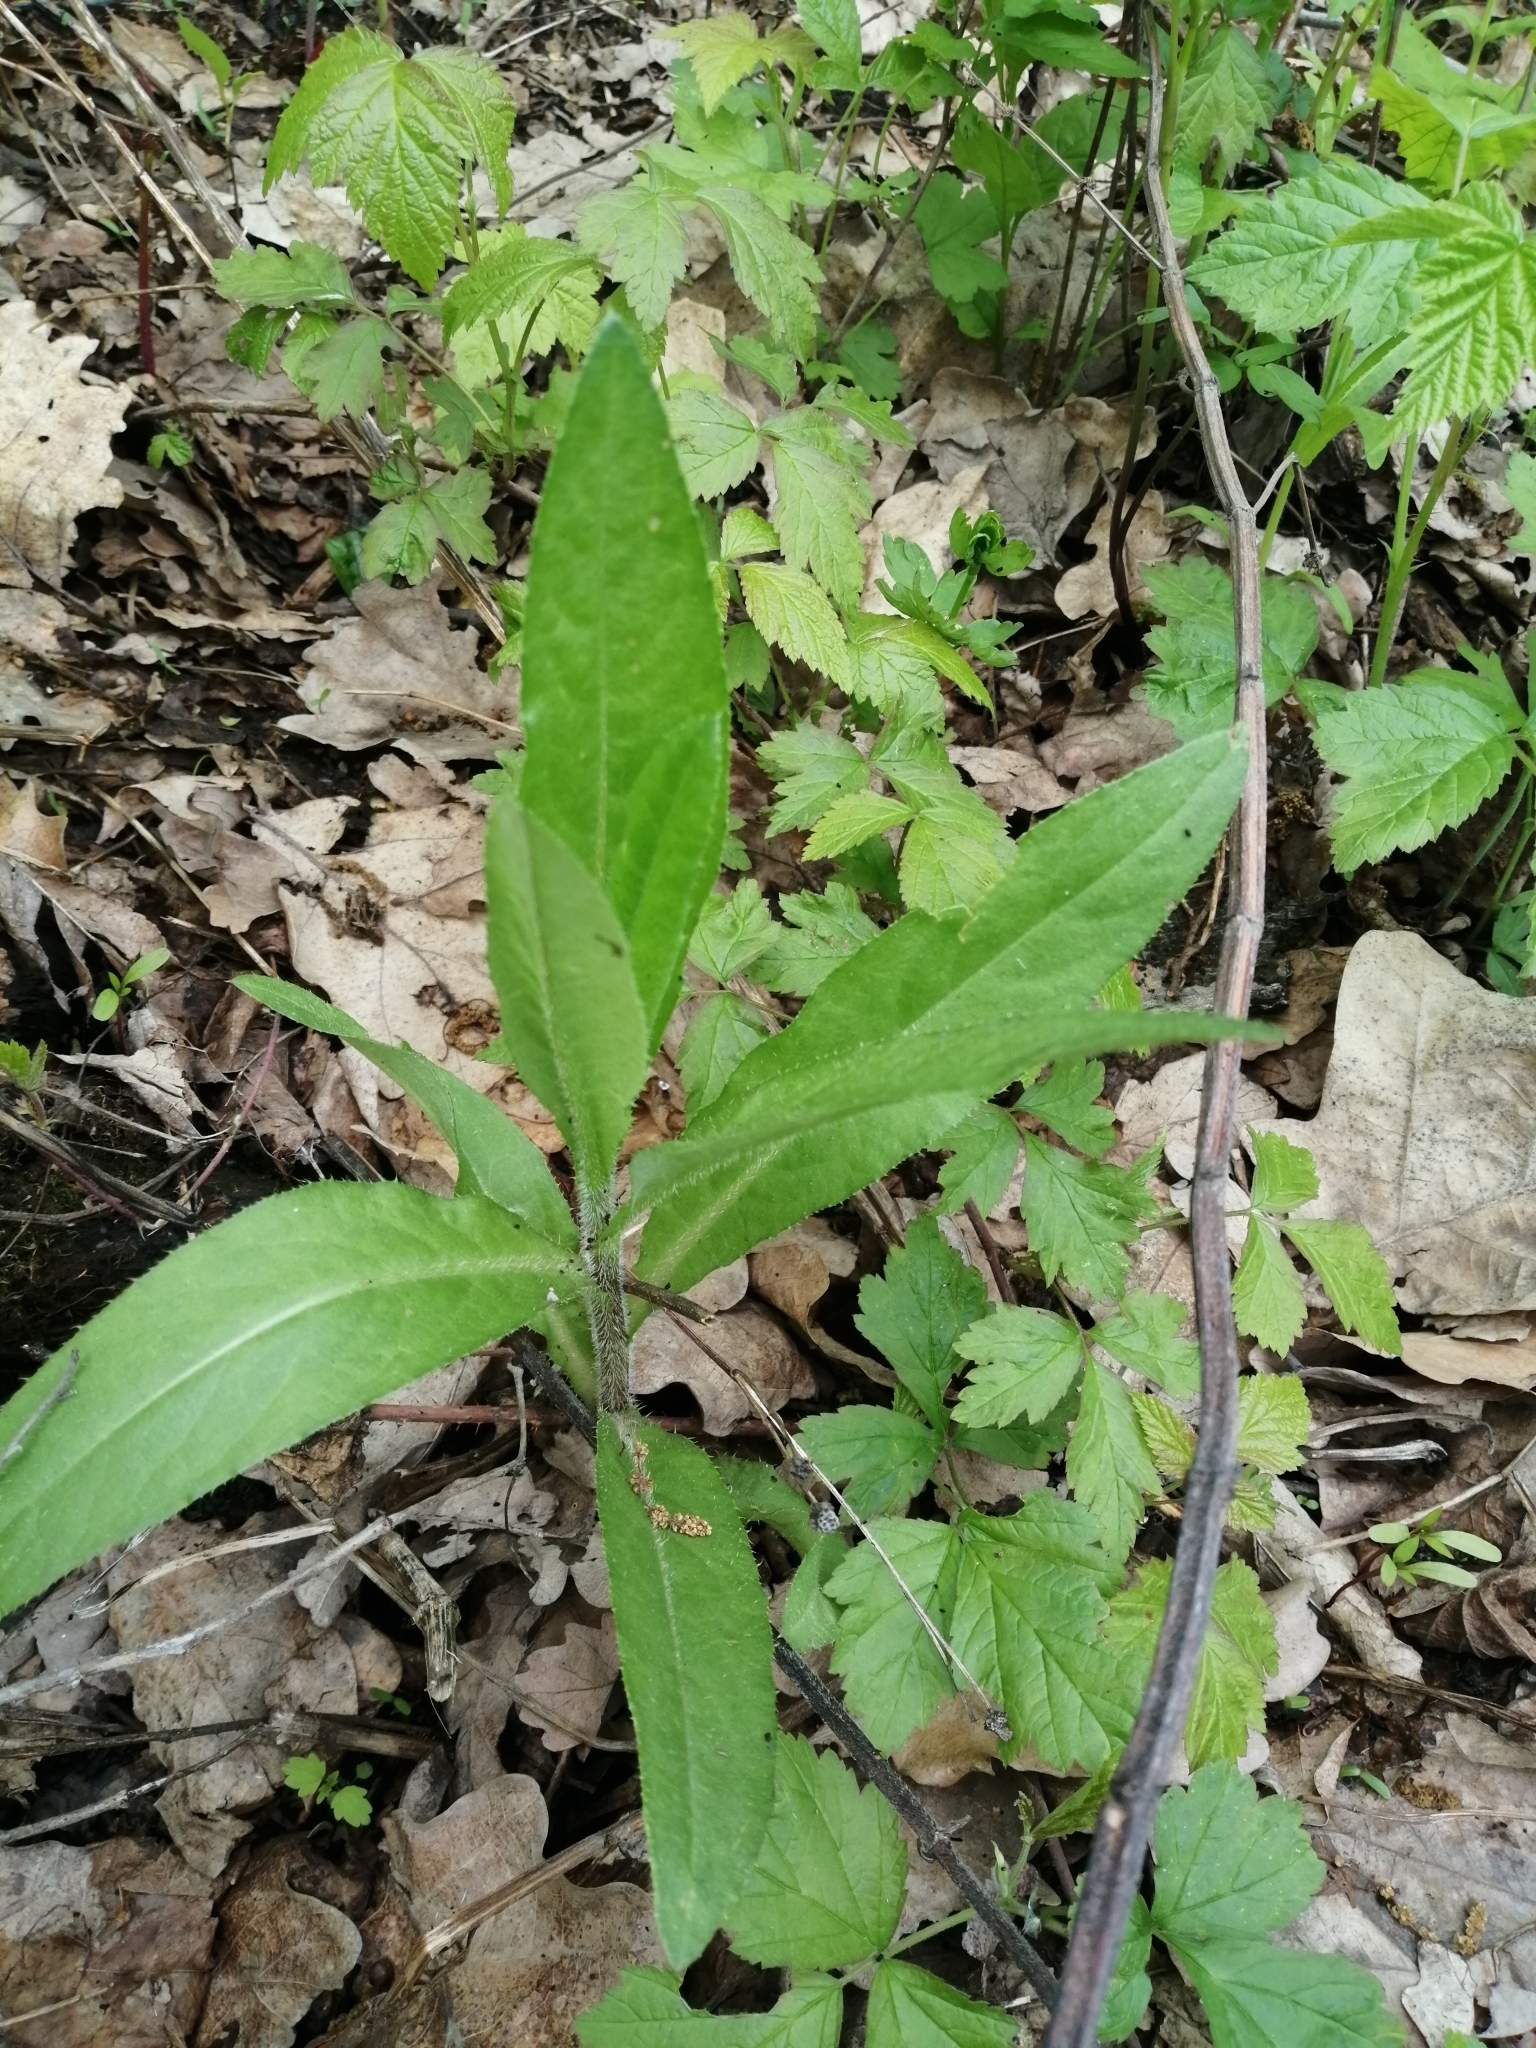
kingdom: Plantae
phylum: Tracheophyta
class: Magnoliopsida
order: Asterales
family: Asteraceae
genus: Cirsium
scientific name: Cirsium arvense
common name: Creeping thistle
